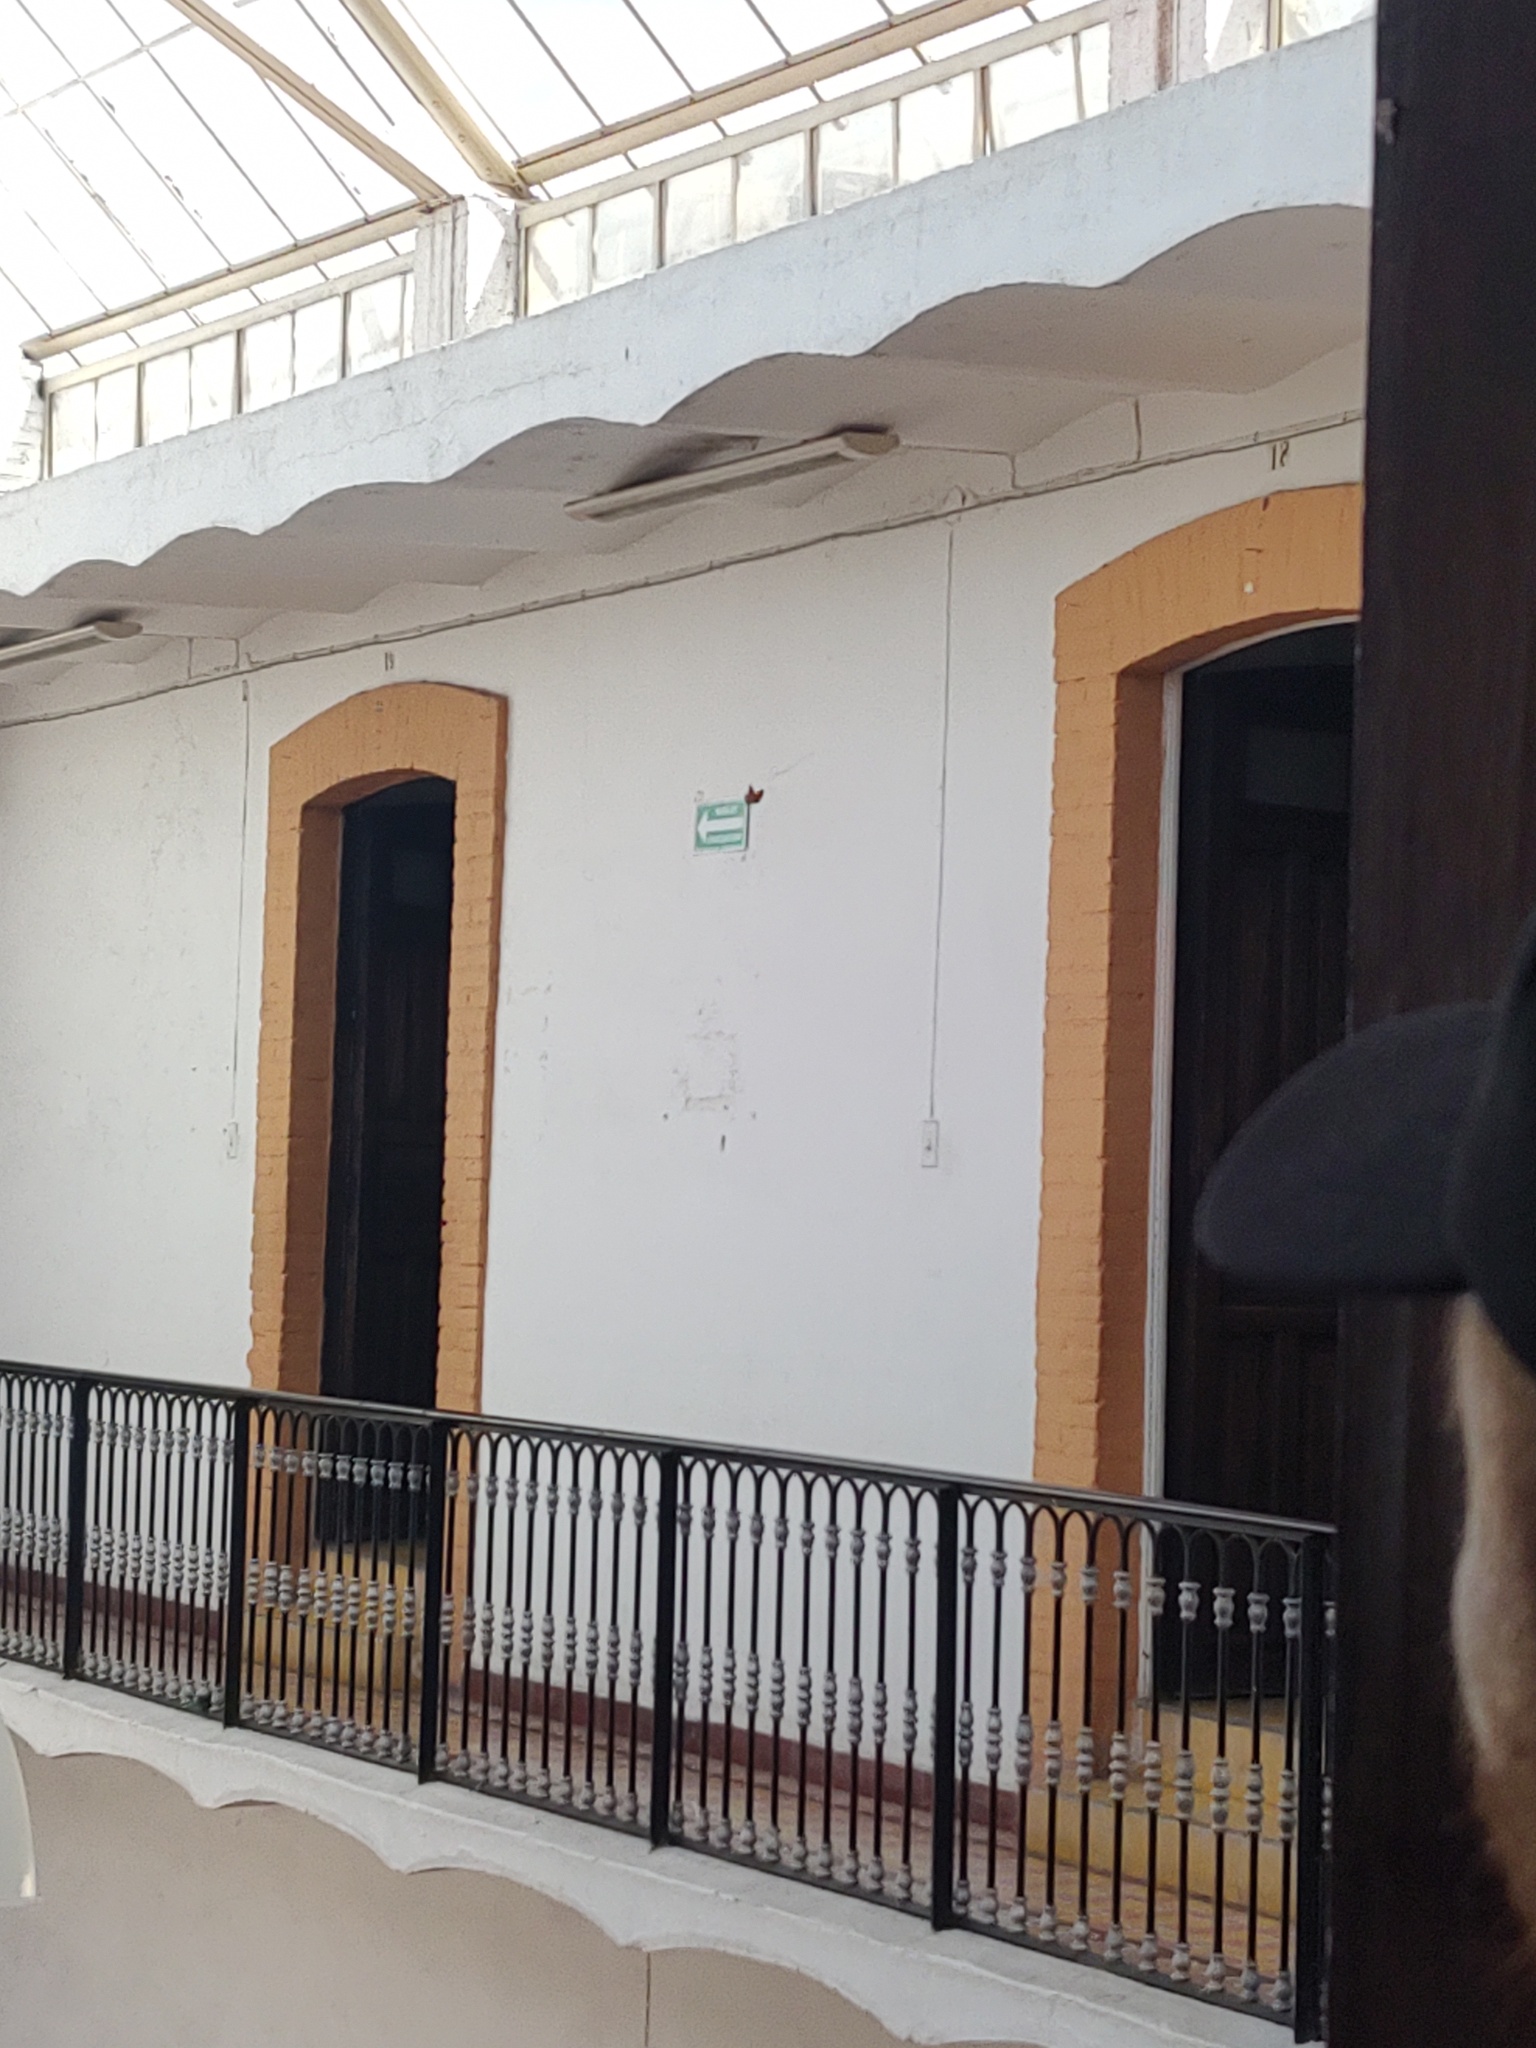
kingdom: Animalia
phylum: Arthropoda
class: Insecta
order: Lepidoptera
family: Nymphalidae
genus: Danaus
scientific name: Danaus plexippus
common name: Monarch
